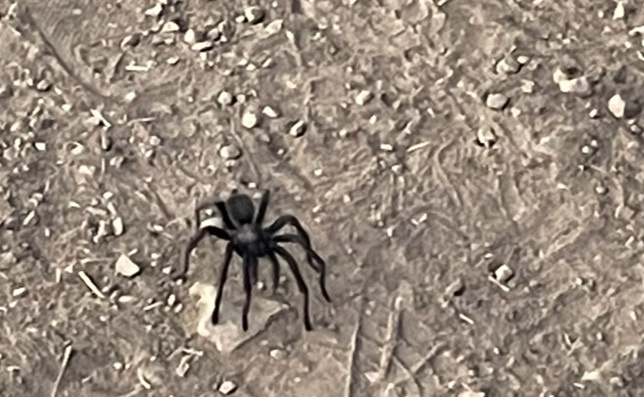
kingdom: Animalia
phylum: Arthropoda
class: Arachnida
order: Araneae
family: Theraphosidae
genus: Aphonopelma
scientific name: Aphonopelma steindachneri
